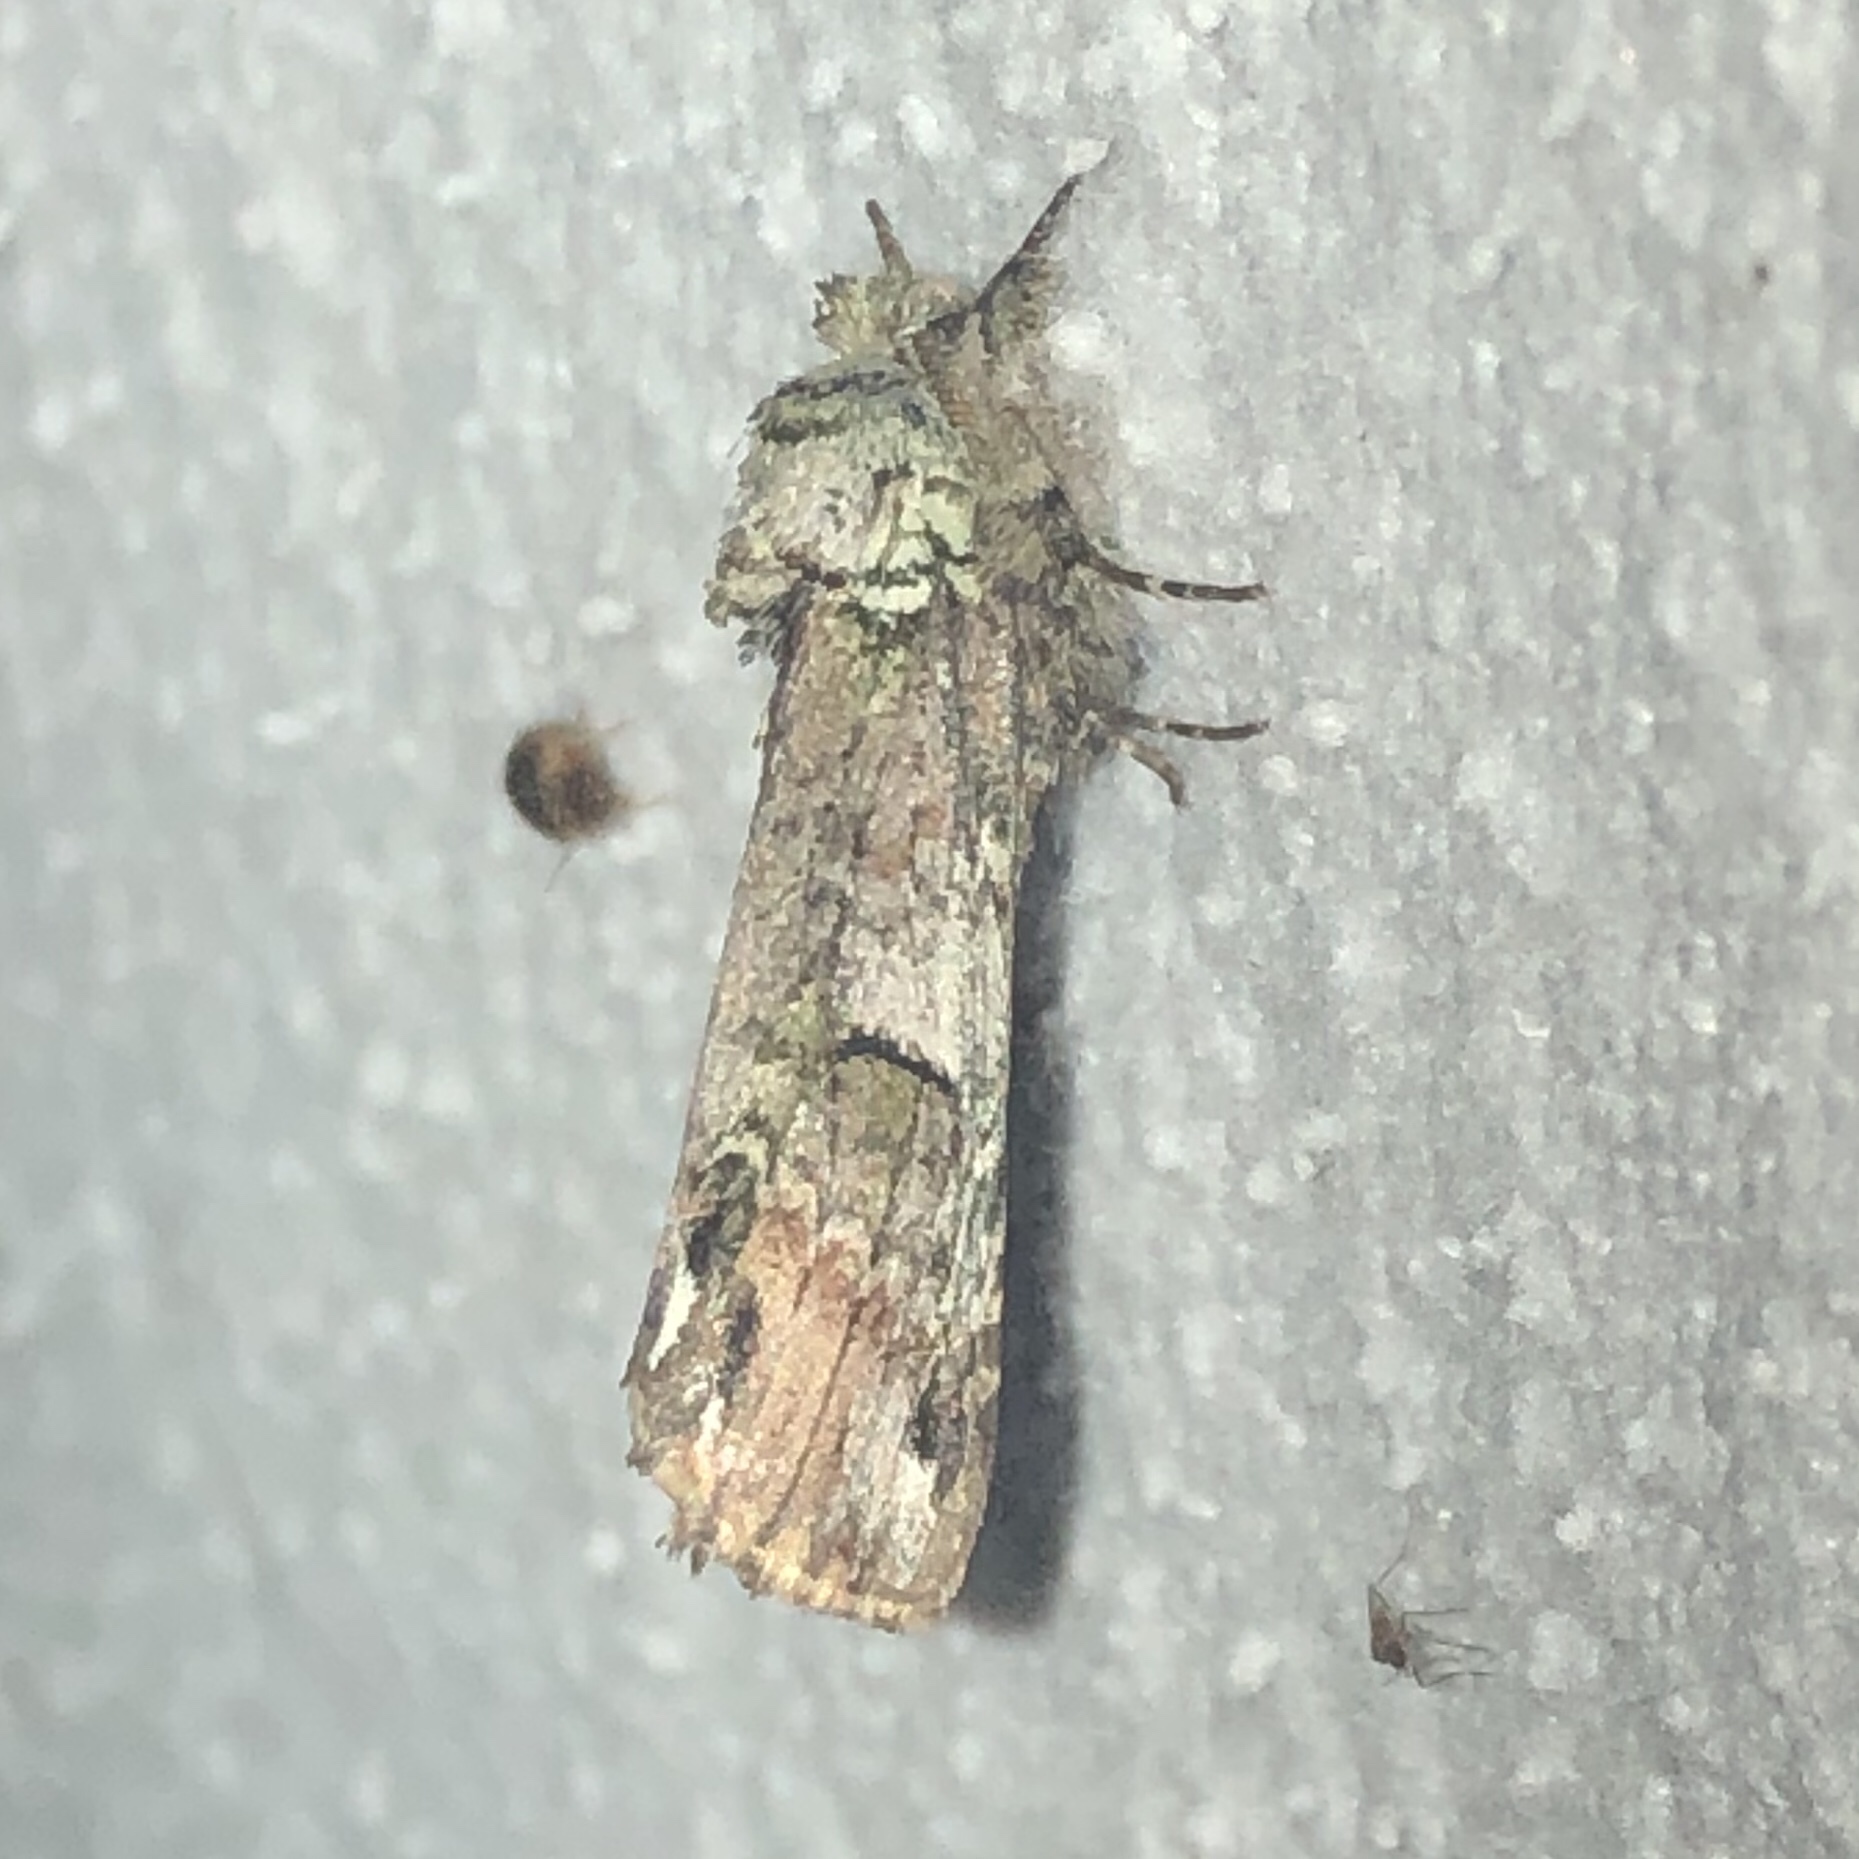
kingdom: Animalia
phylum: Arthropoda
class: Insecta
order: Lepidoptera
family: Notodontidae
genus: Schizura
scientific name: Schizura
